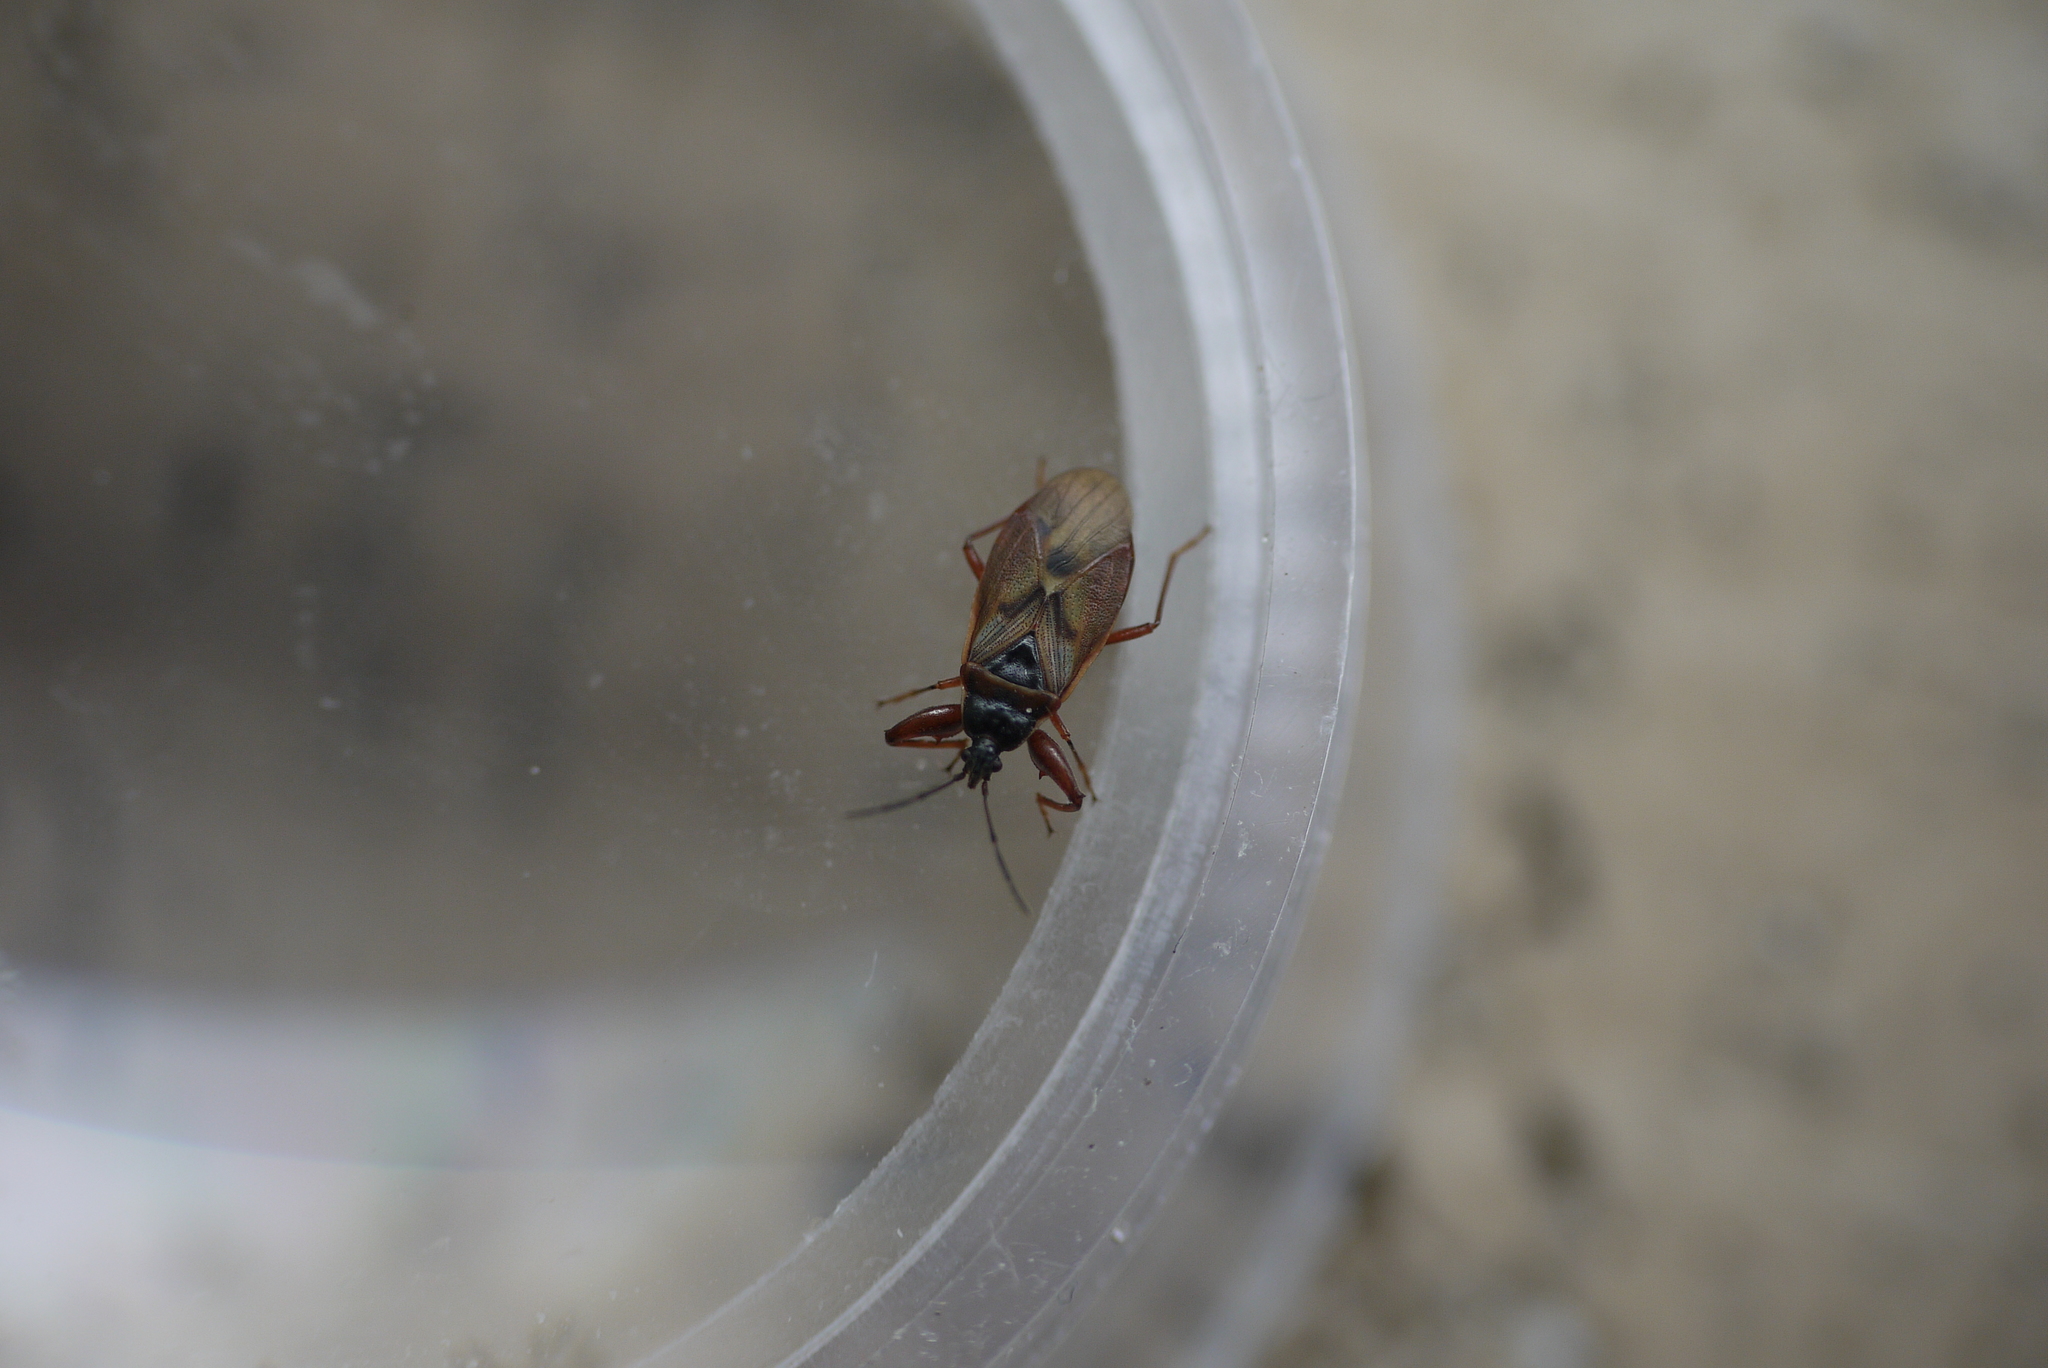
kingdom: Animalia
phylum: Arthropoda
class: Insecta
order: Hemiptera
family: Rhyparochromidae
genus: Gastrodes
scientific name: Gastrodes abietum
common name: Spruce cone bug
